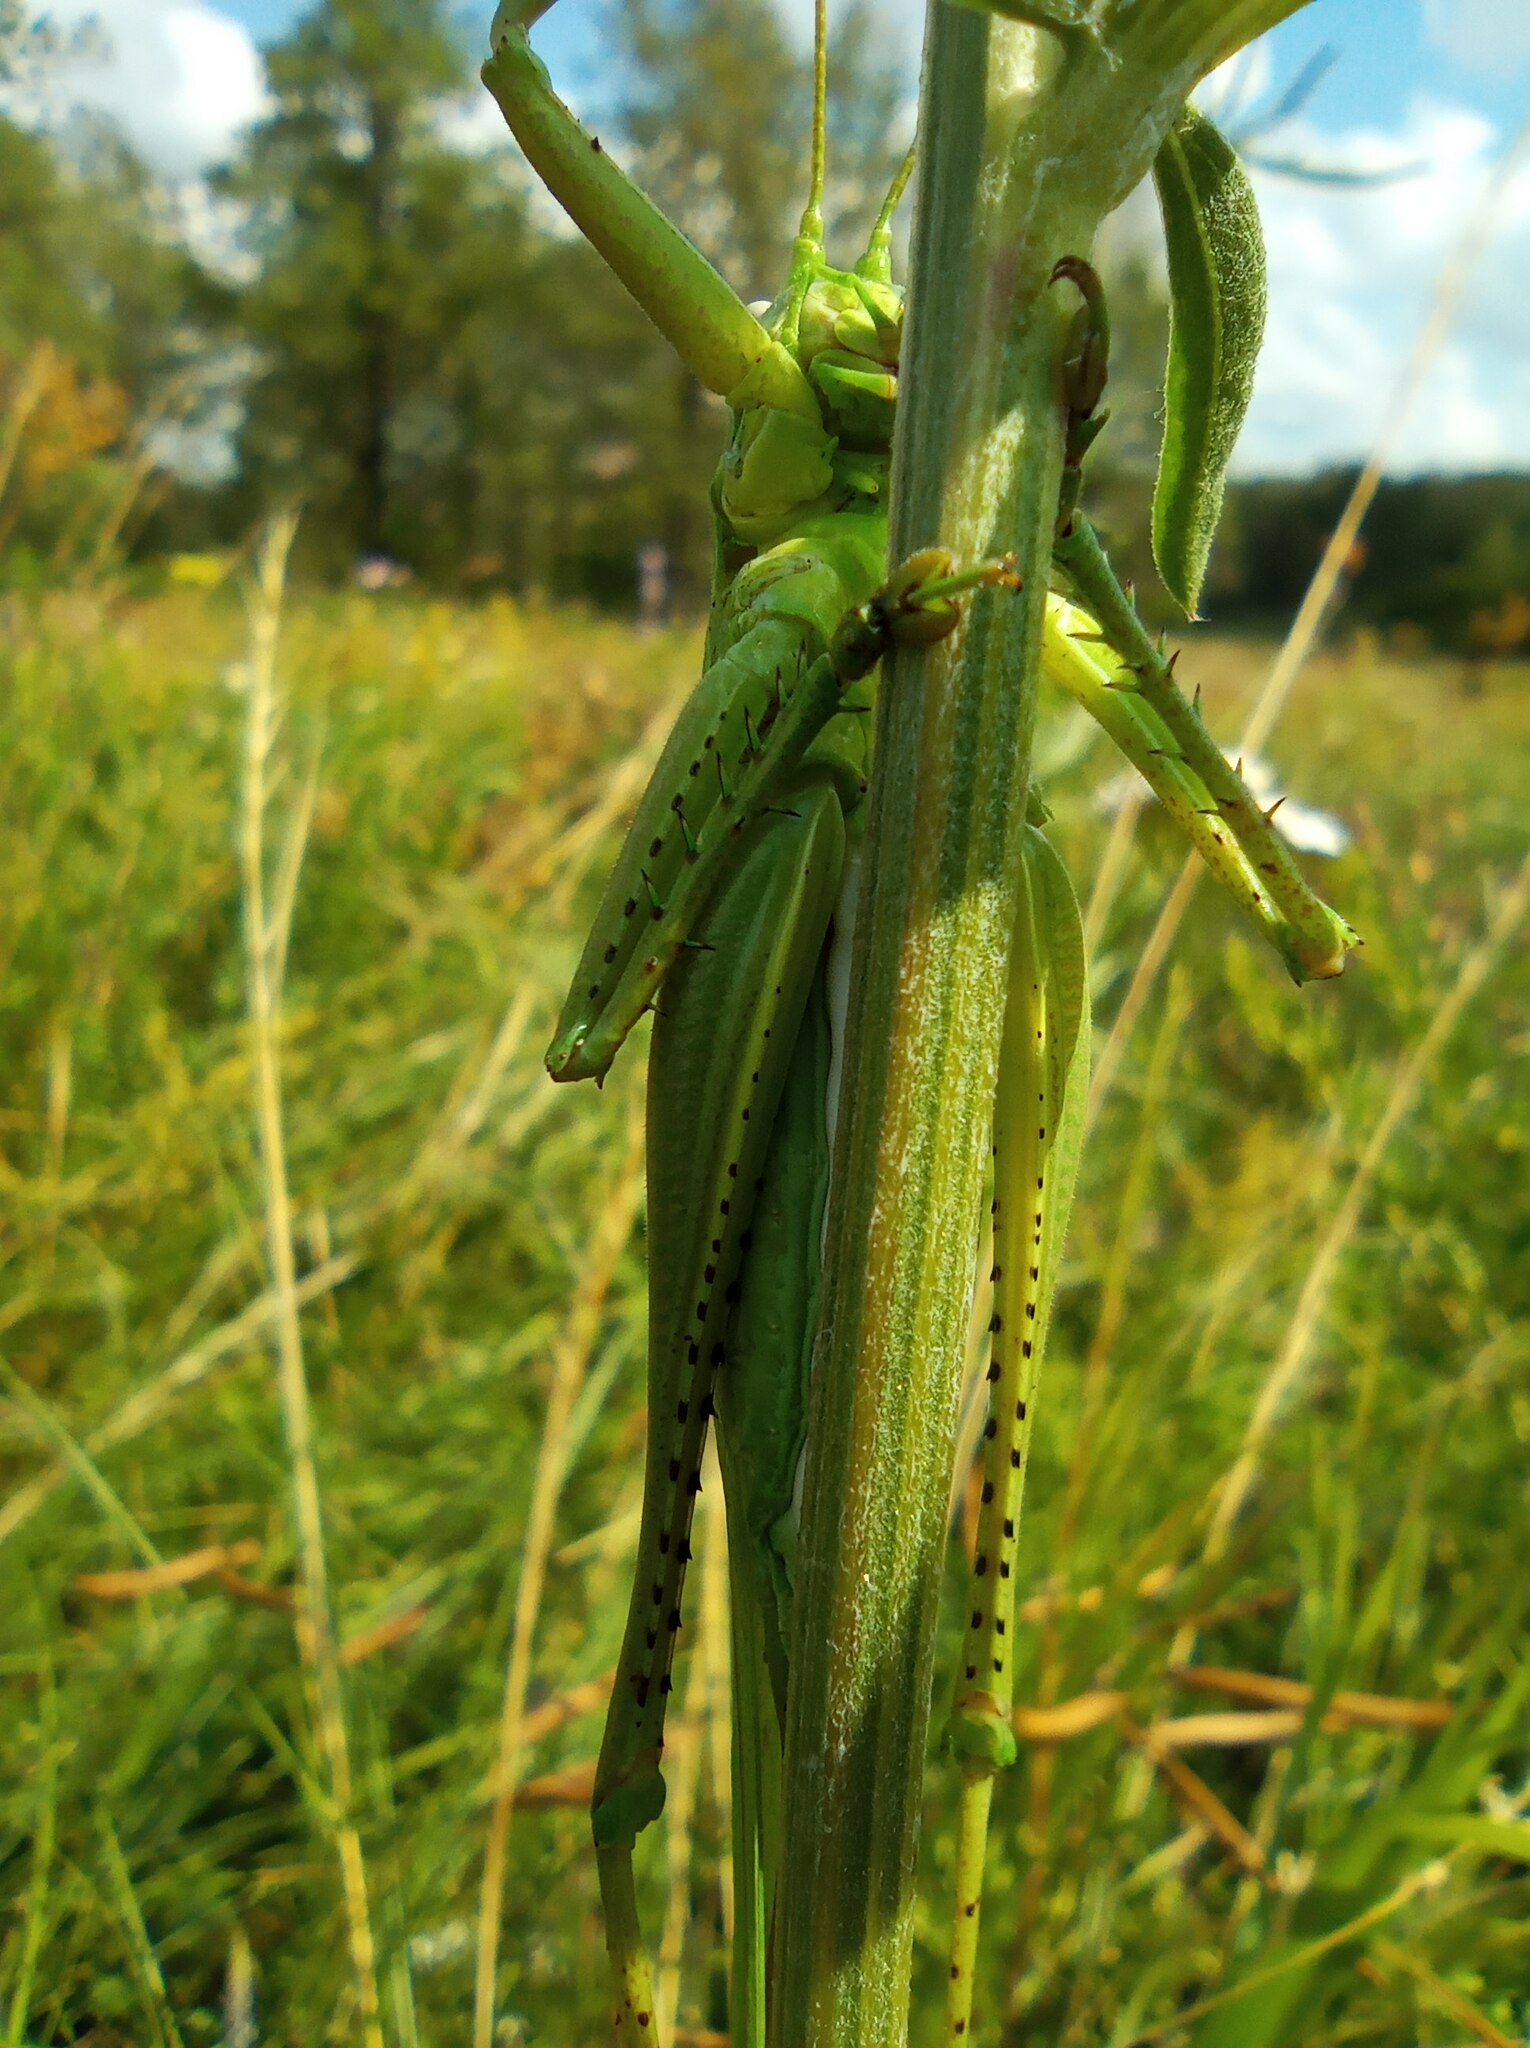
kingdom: Animalia
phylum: Arthropoda
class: Insecta
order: Orthoptera
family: Tettigoniidae
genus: Tettigonia
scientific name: Tettigonia caudata
